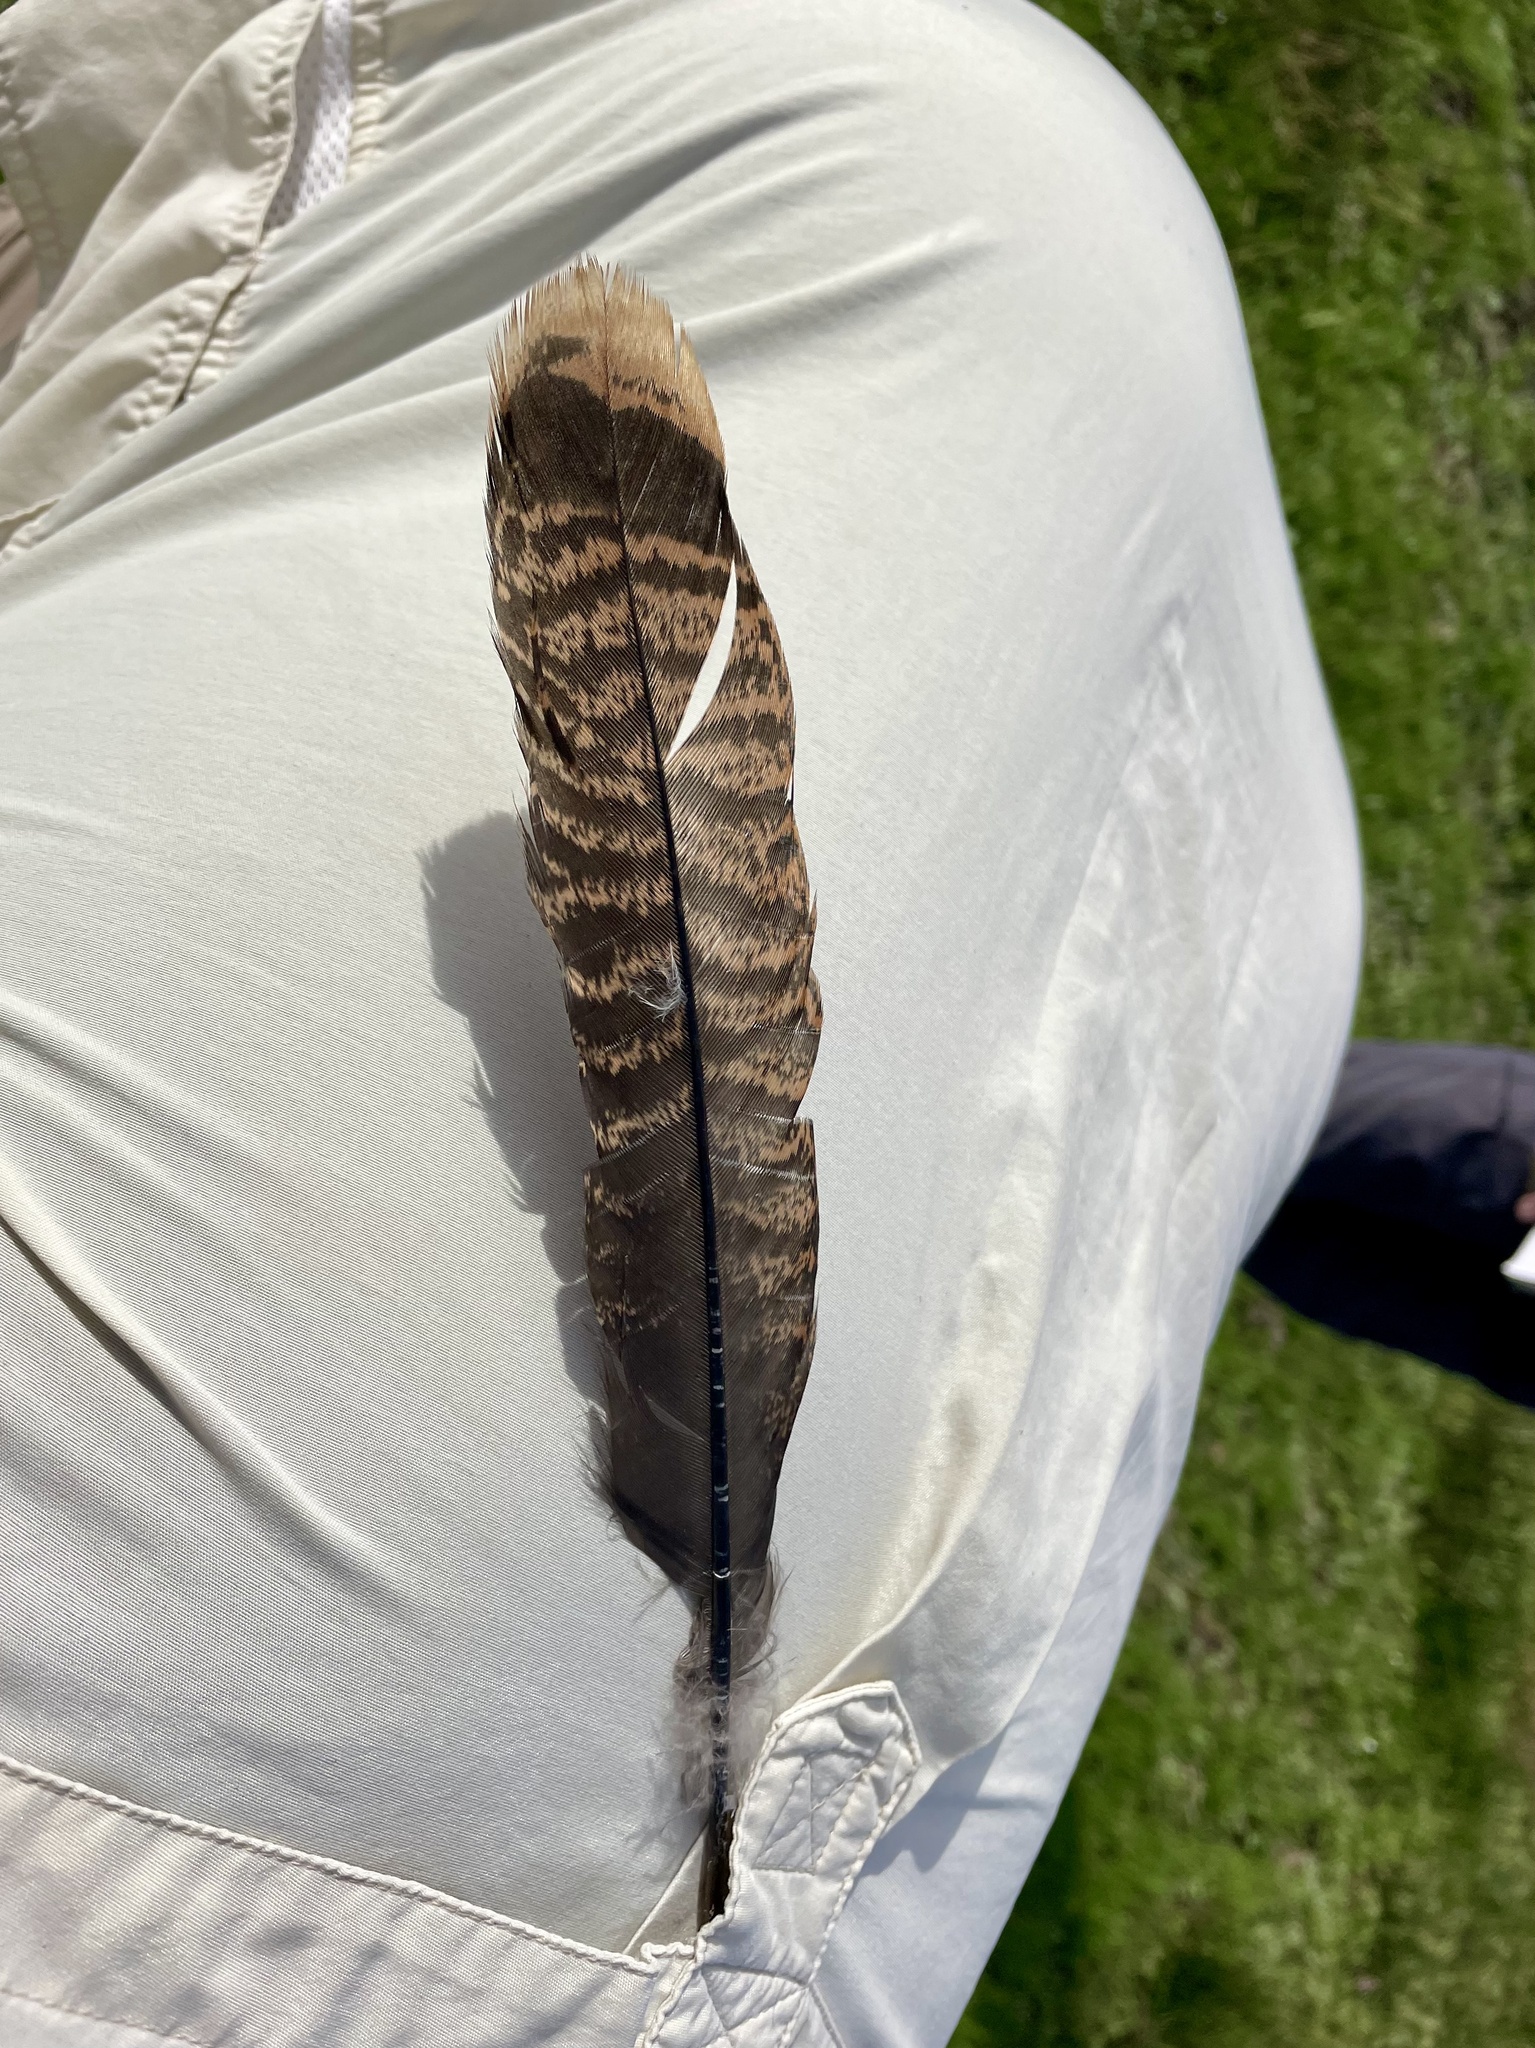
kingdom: Animalia
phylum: Chordata
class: Aves
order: Galliformes
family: Phasianidae
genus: Meleagris
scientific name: Meleagris gallopavo
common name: Wild turkey
